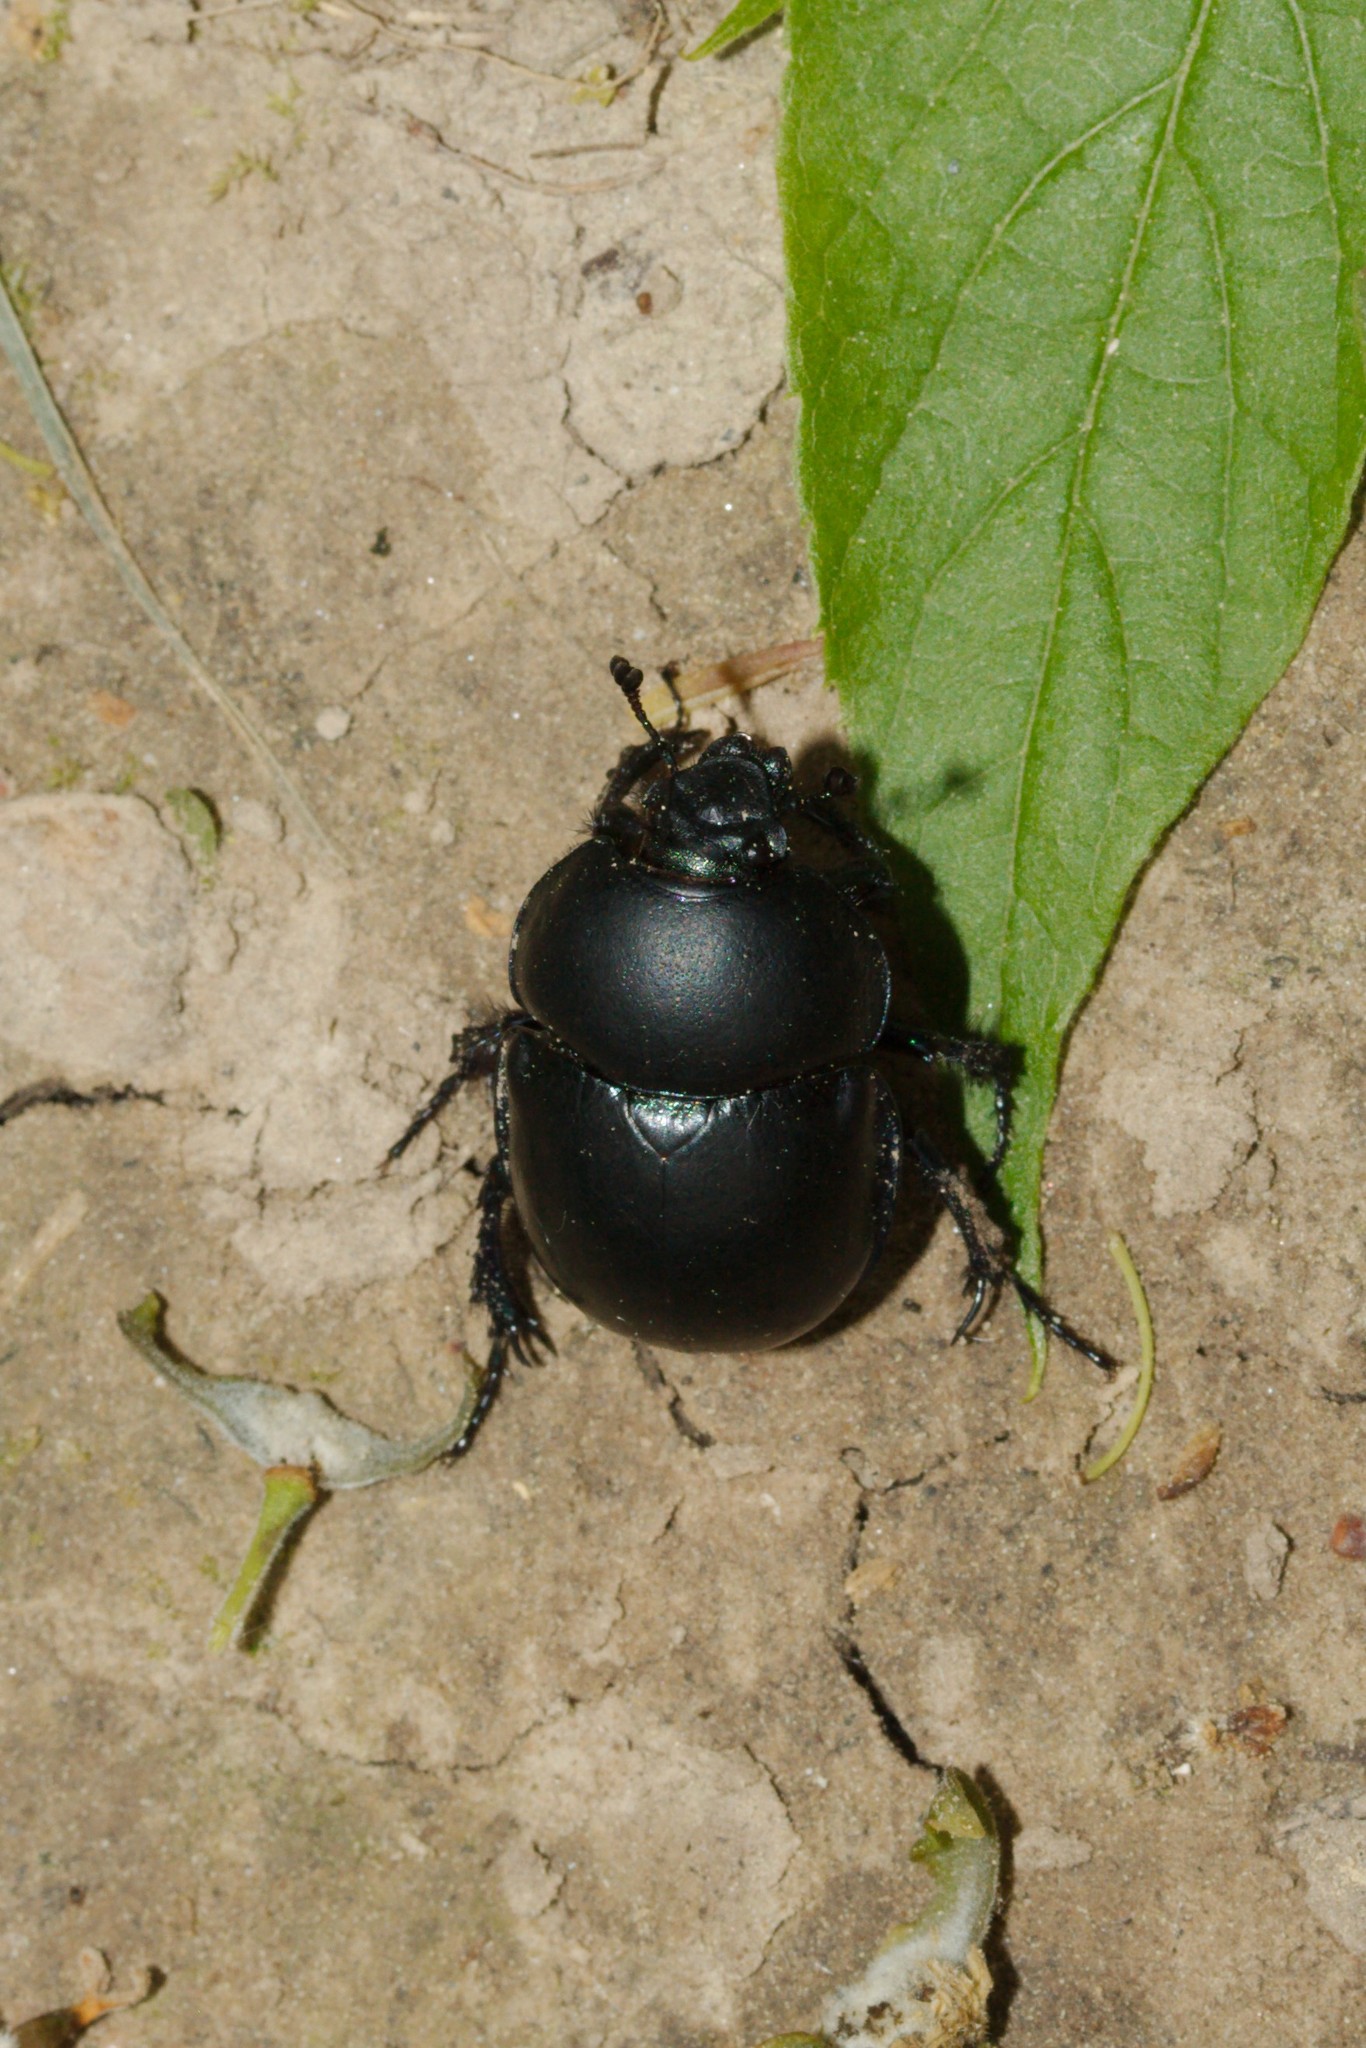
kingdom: Animalia
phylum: Arthropoda
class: Insecta
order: Coleoptera
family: Geotrupidae
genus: Trypocopris
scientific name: Trypocopris vernalis
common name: Spring dumbledor
